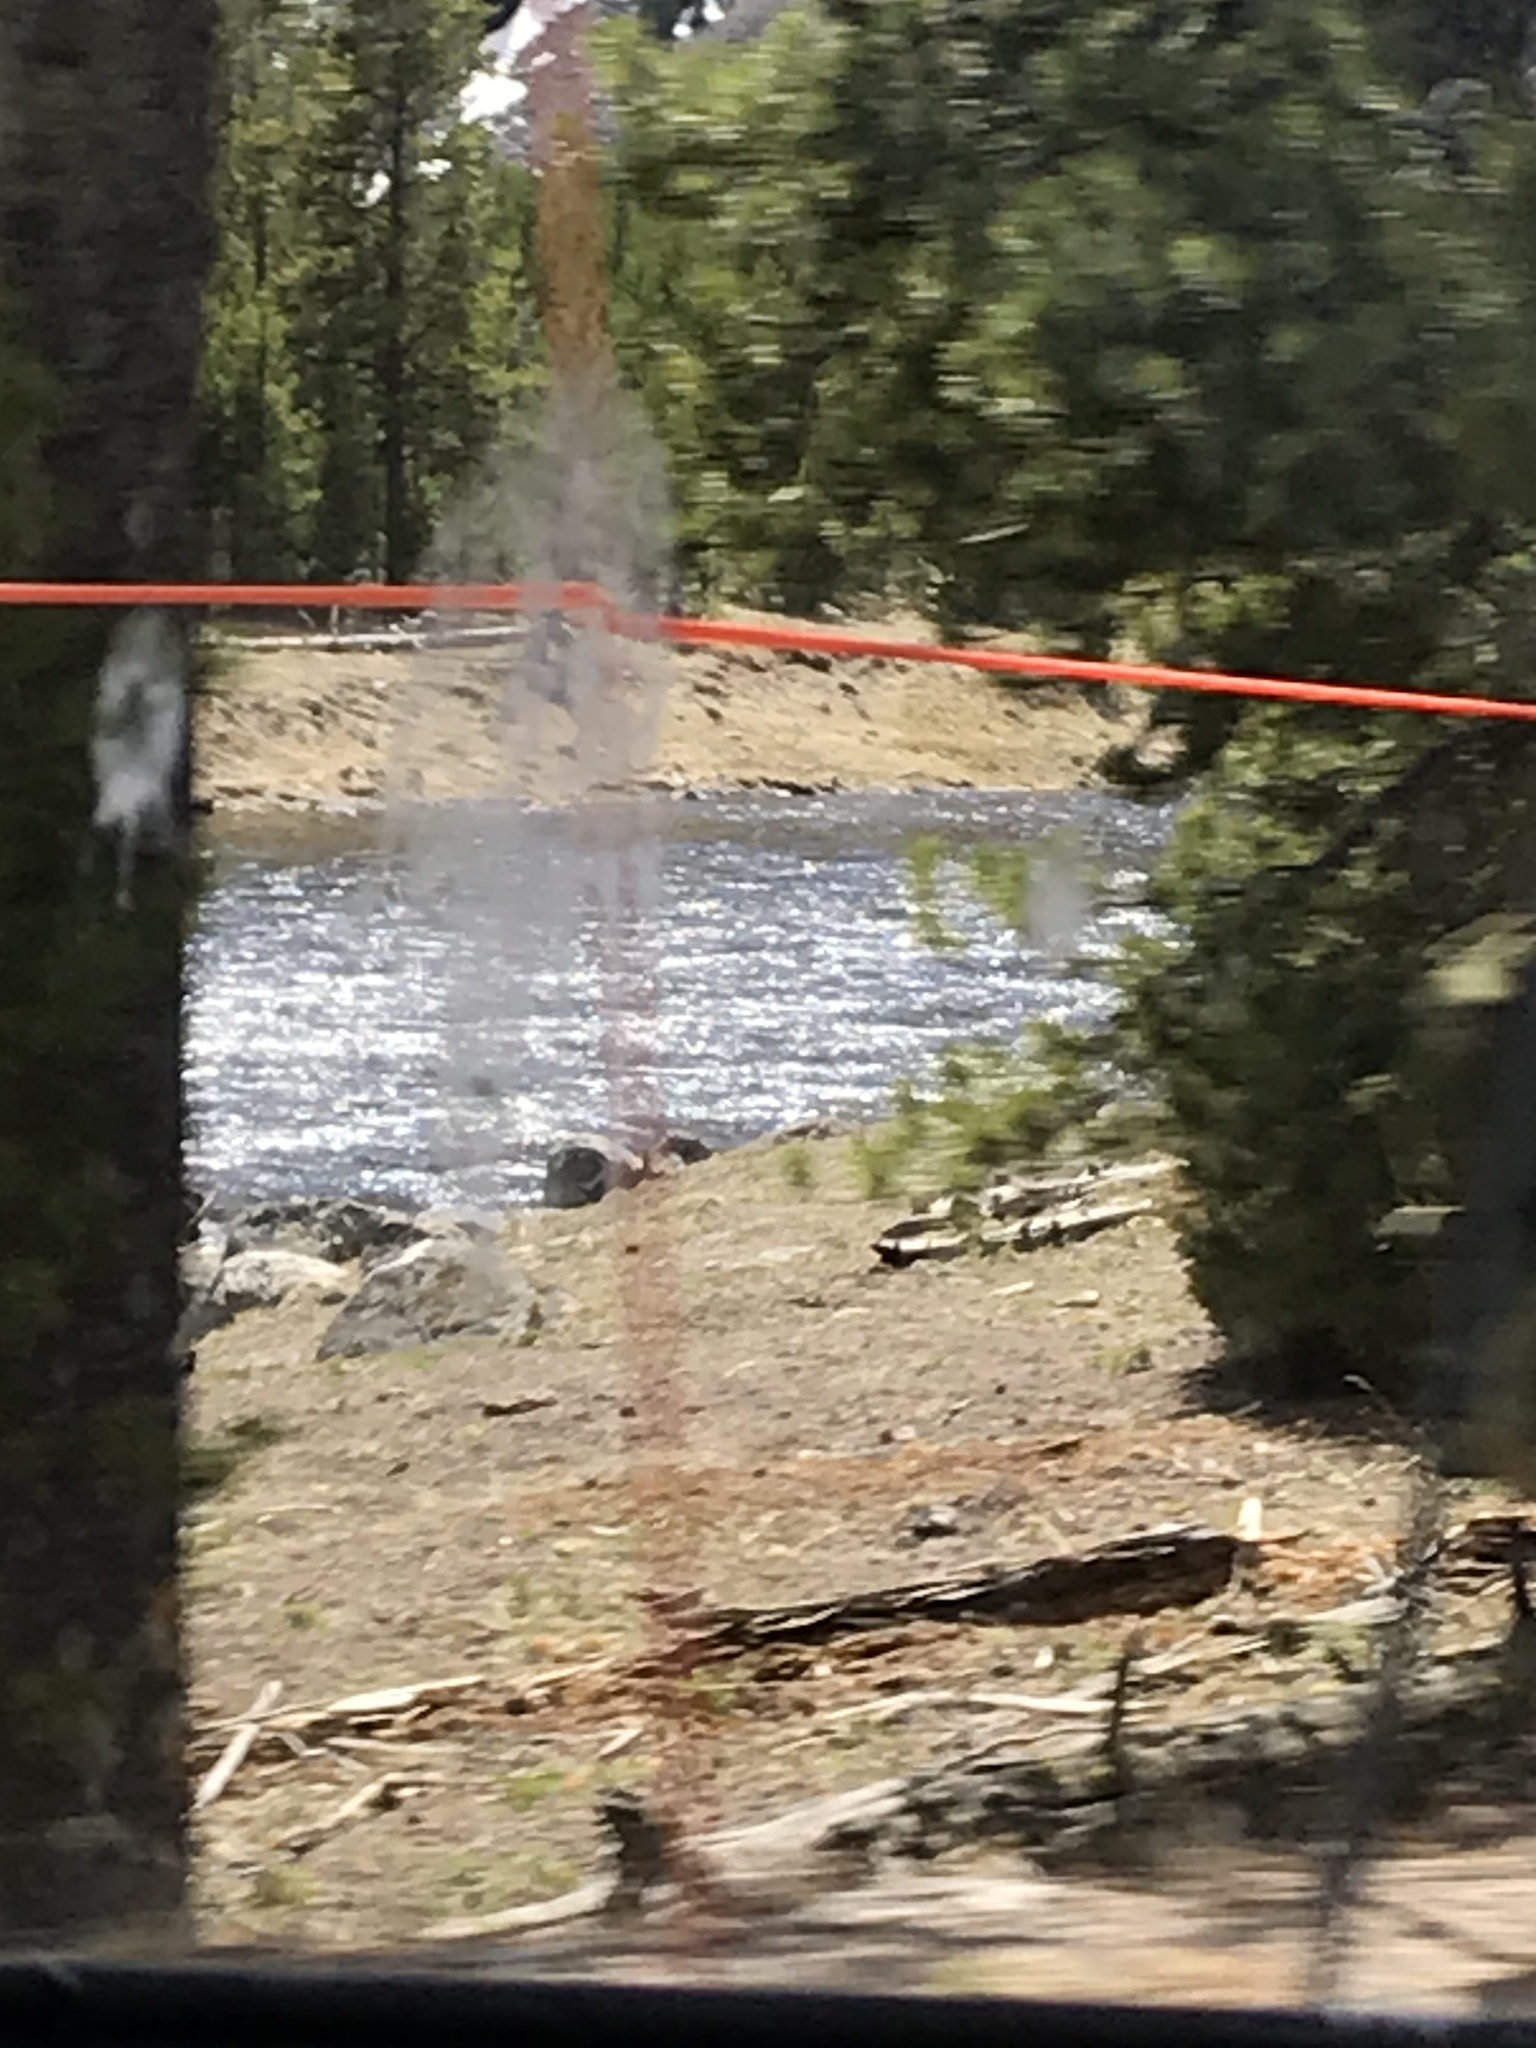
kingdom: Animalia
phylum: Chordata
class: Mammalia
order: Artiodactyla
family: Bovidae
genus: Bison
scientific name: Bison bison
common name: American bison
